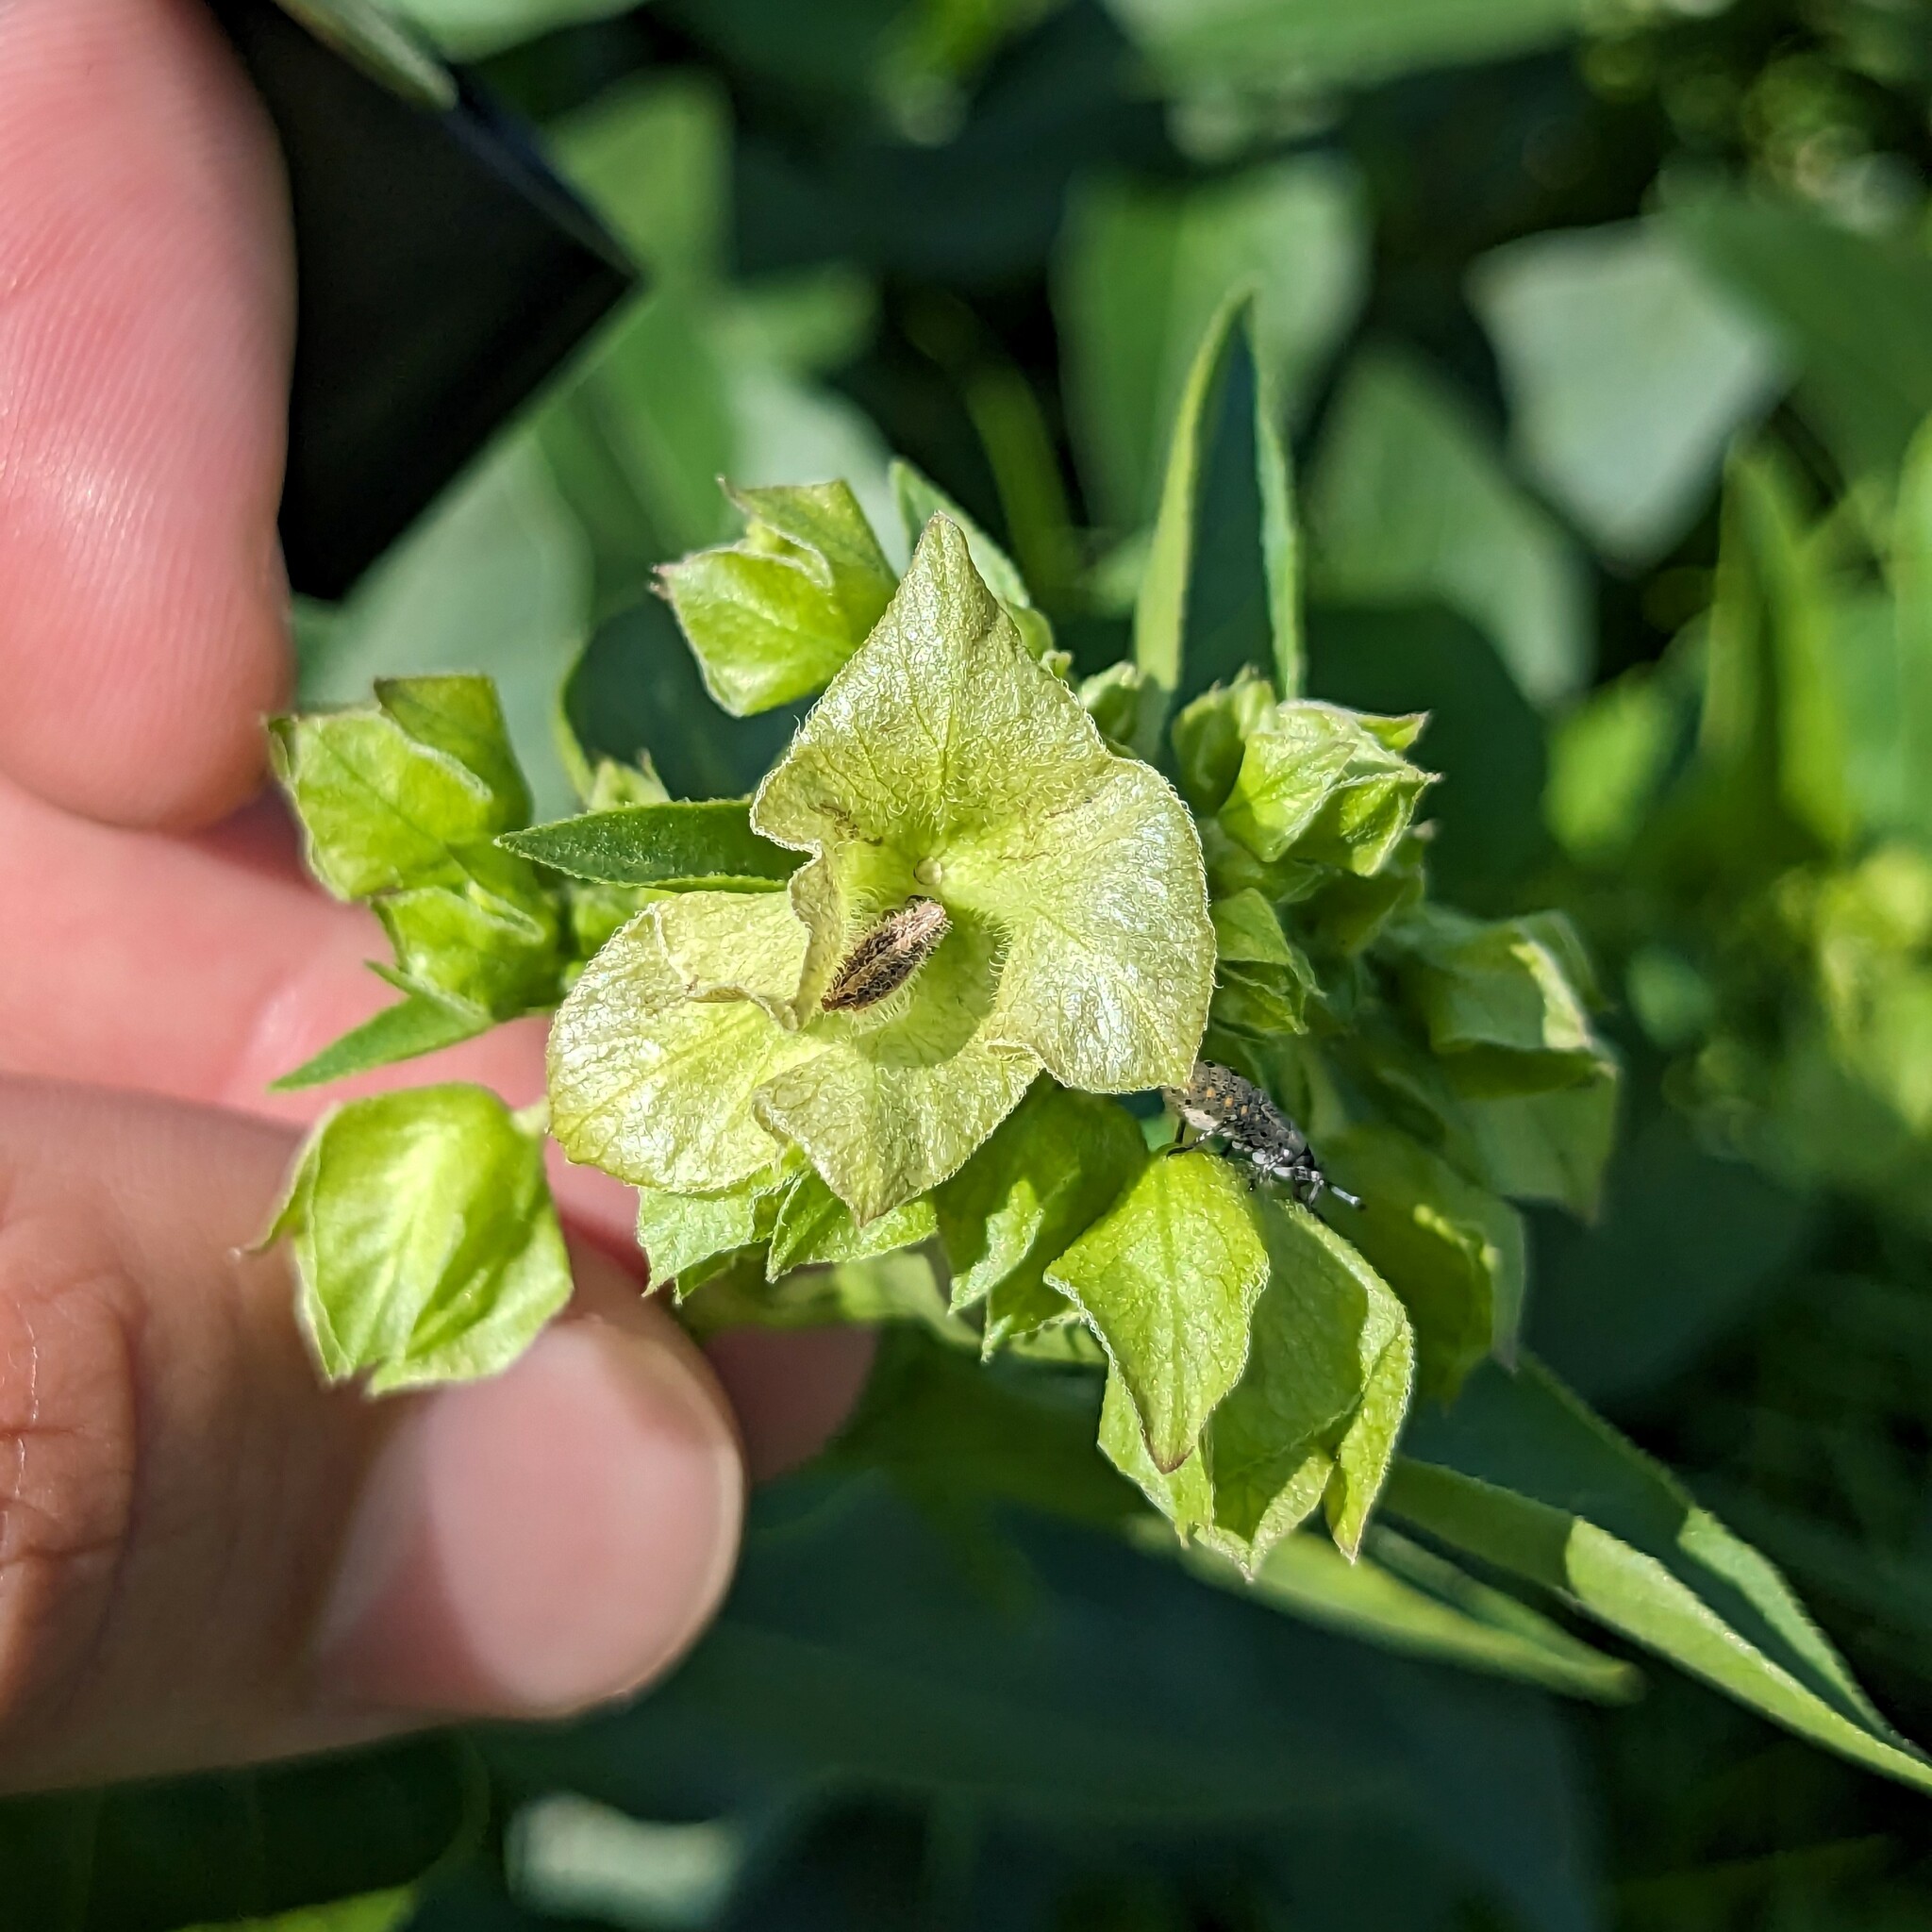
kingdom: Plantae
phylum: Tracheophyta
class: Magnoliopsida
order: Caryophyllales
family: Nyctaginaceae
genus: Mirabilis
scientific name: Mirabilis nyctaginea
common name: Umbrella wort
